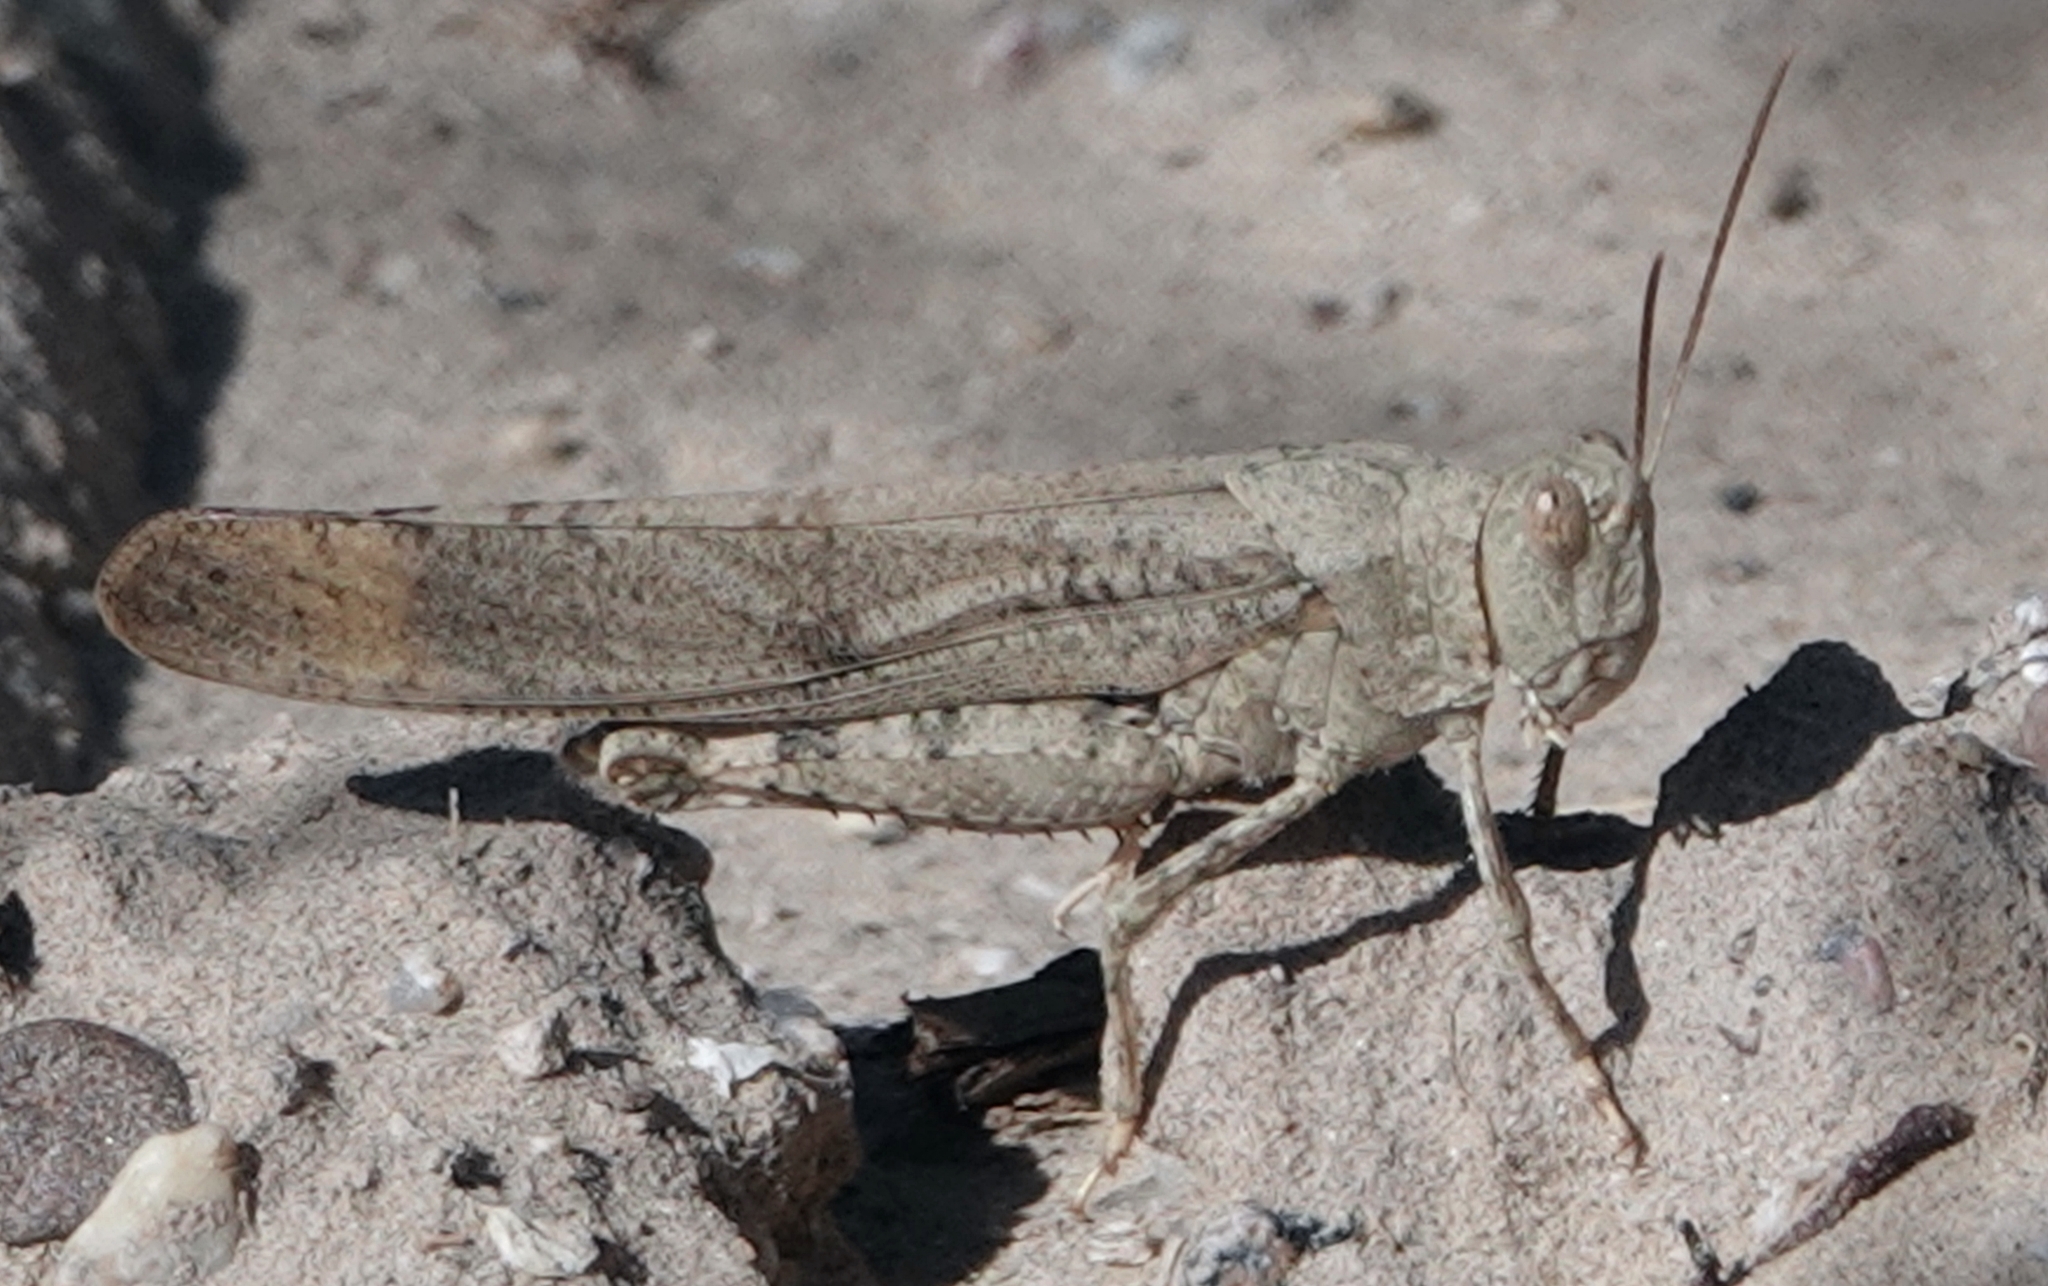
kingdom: Animalia
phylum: Arthropoda
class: Insecta
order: Orthoptera
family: Acrididae
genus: Dissosteira
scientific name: Dissosteira carolina
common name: Carolina grasshopper
